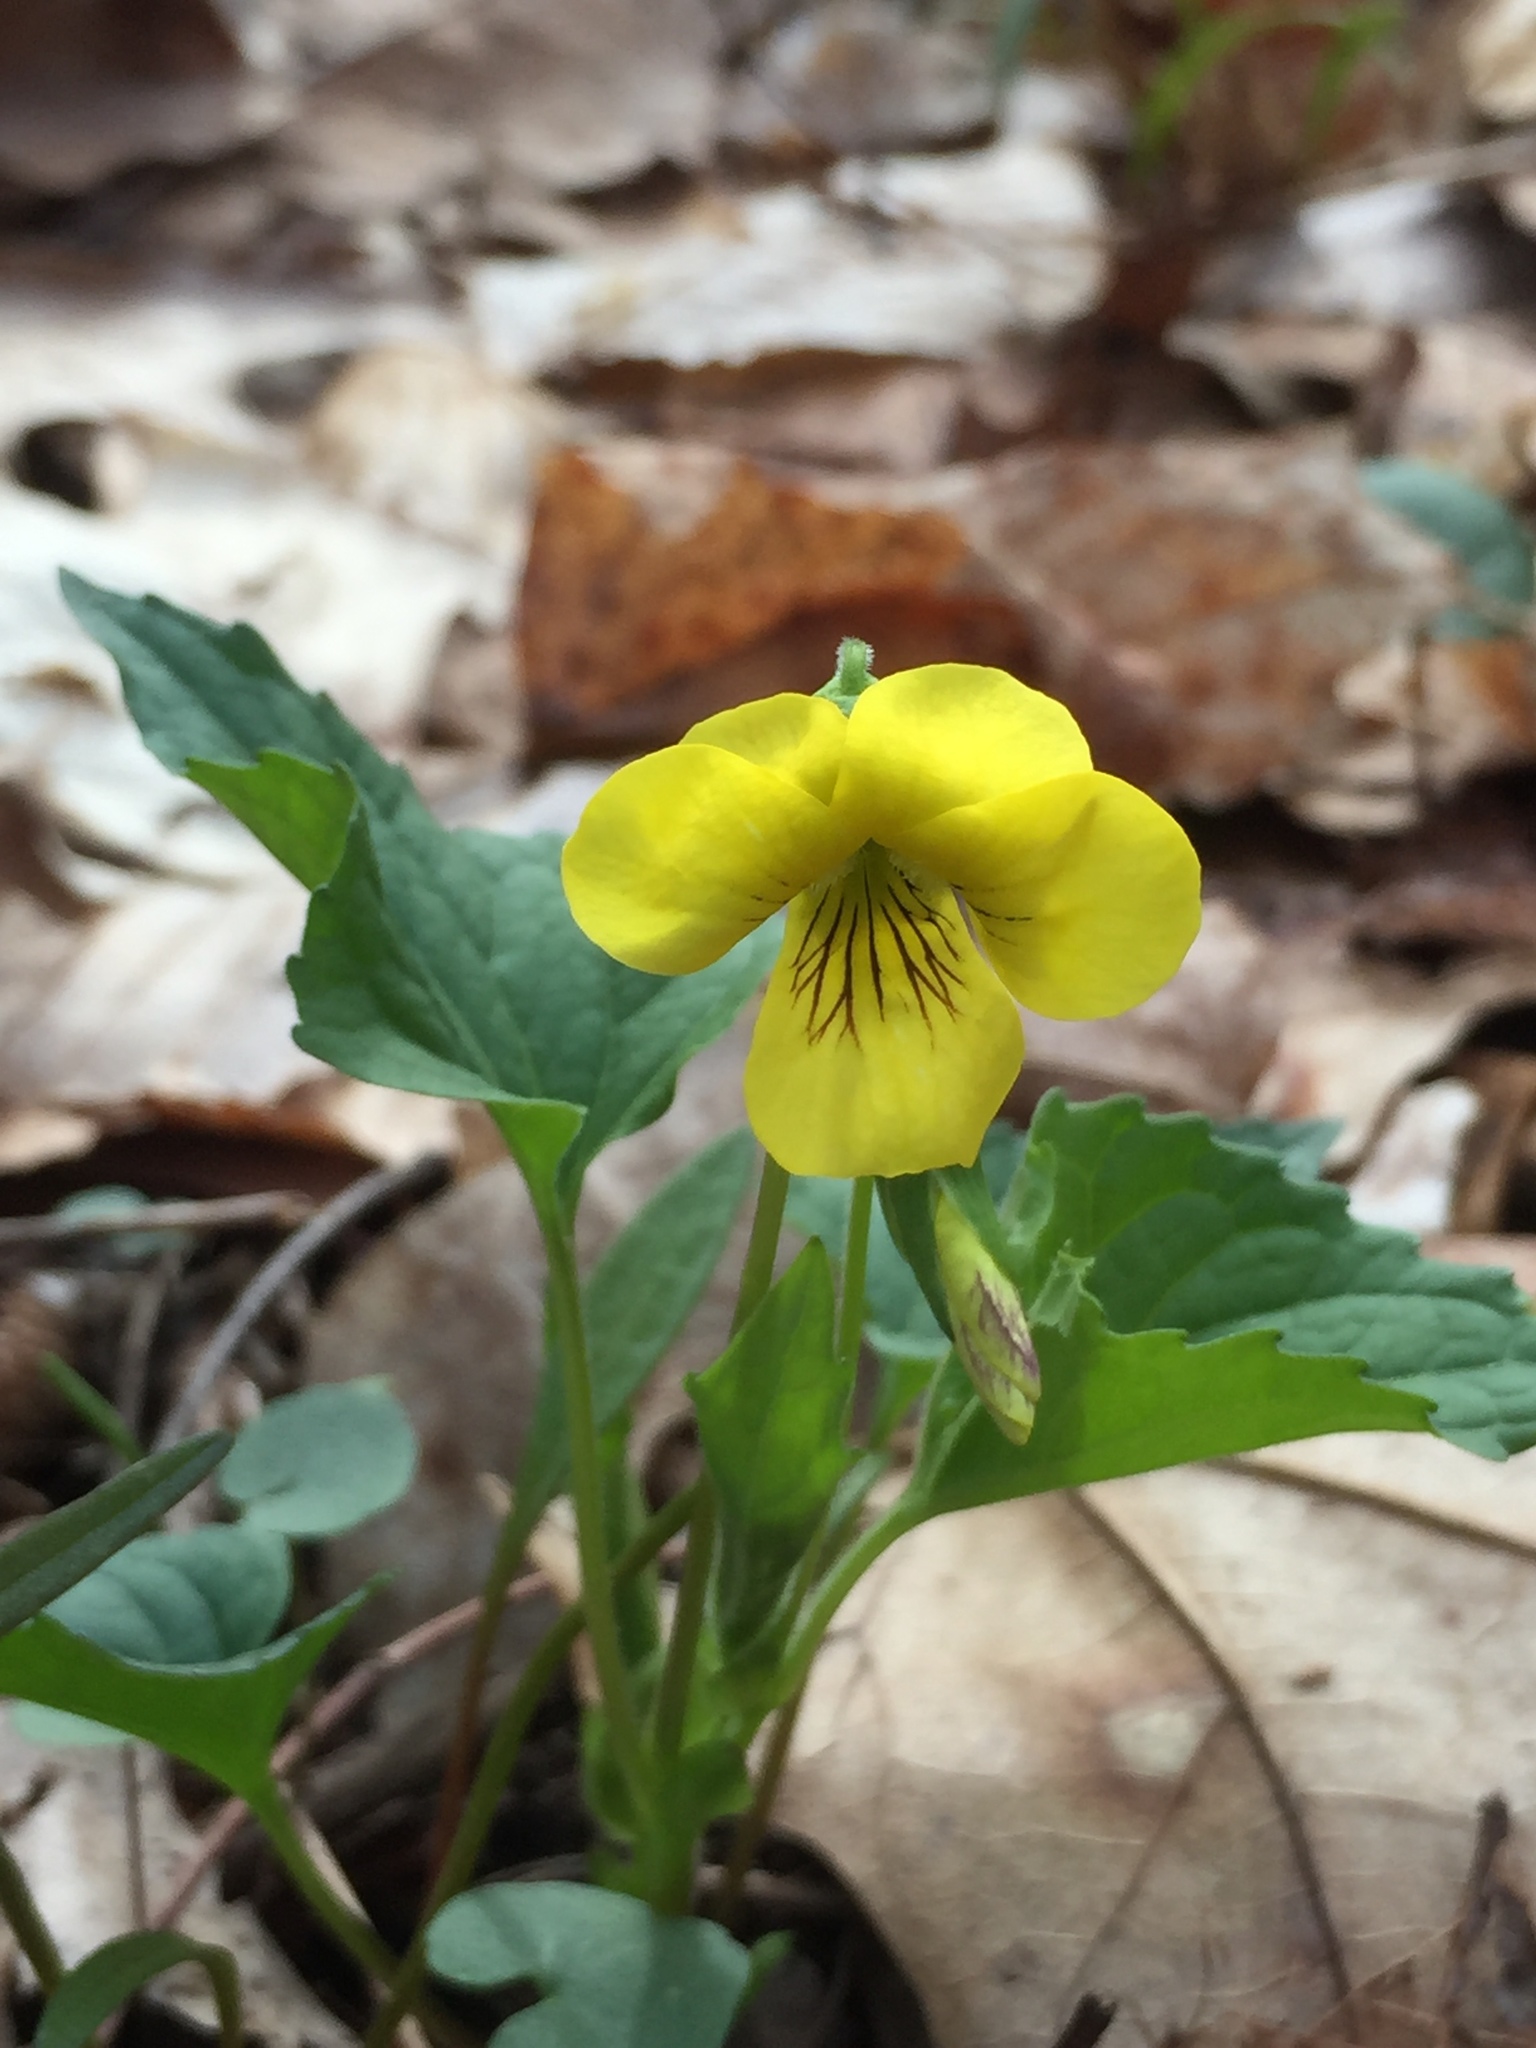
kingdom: Plantae
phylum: Tracheophyta
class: Magnoliopsida
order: Malpighiales
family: Violaceae
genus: Viola
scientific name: Viola eriocarpa
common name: Smooth yellow violet
